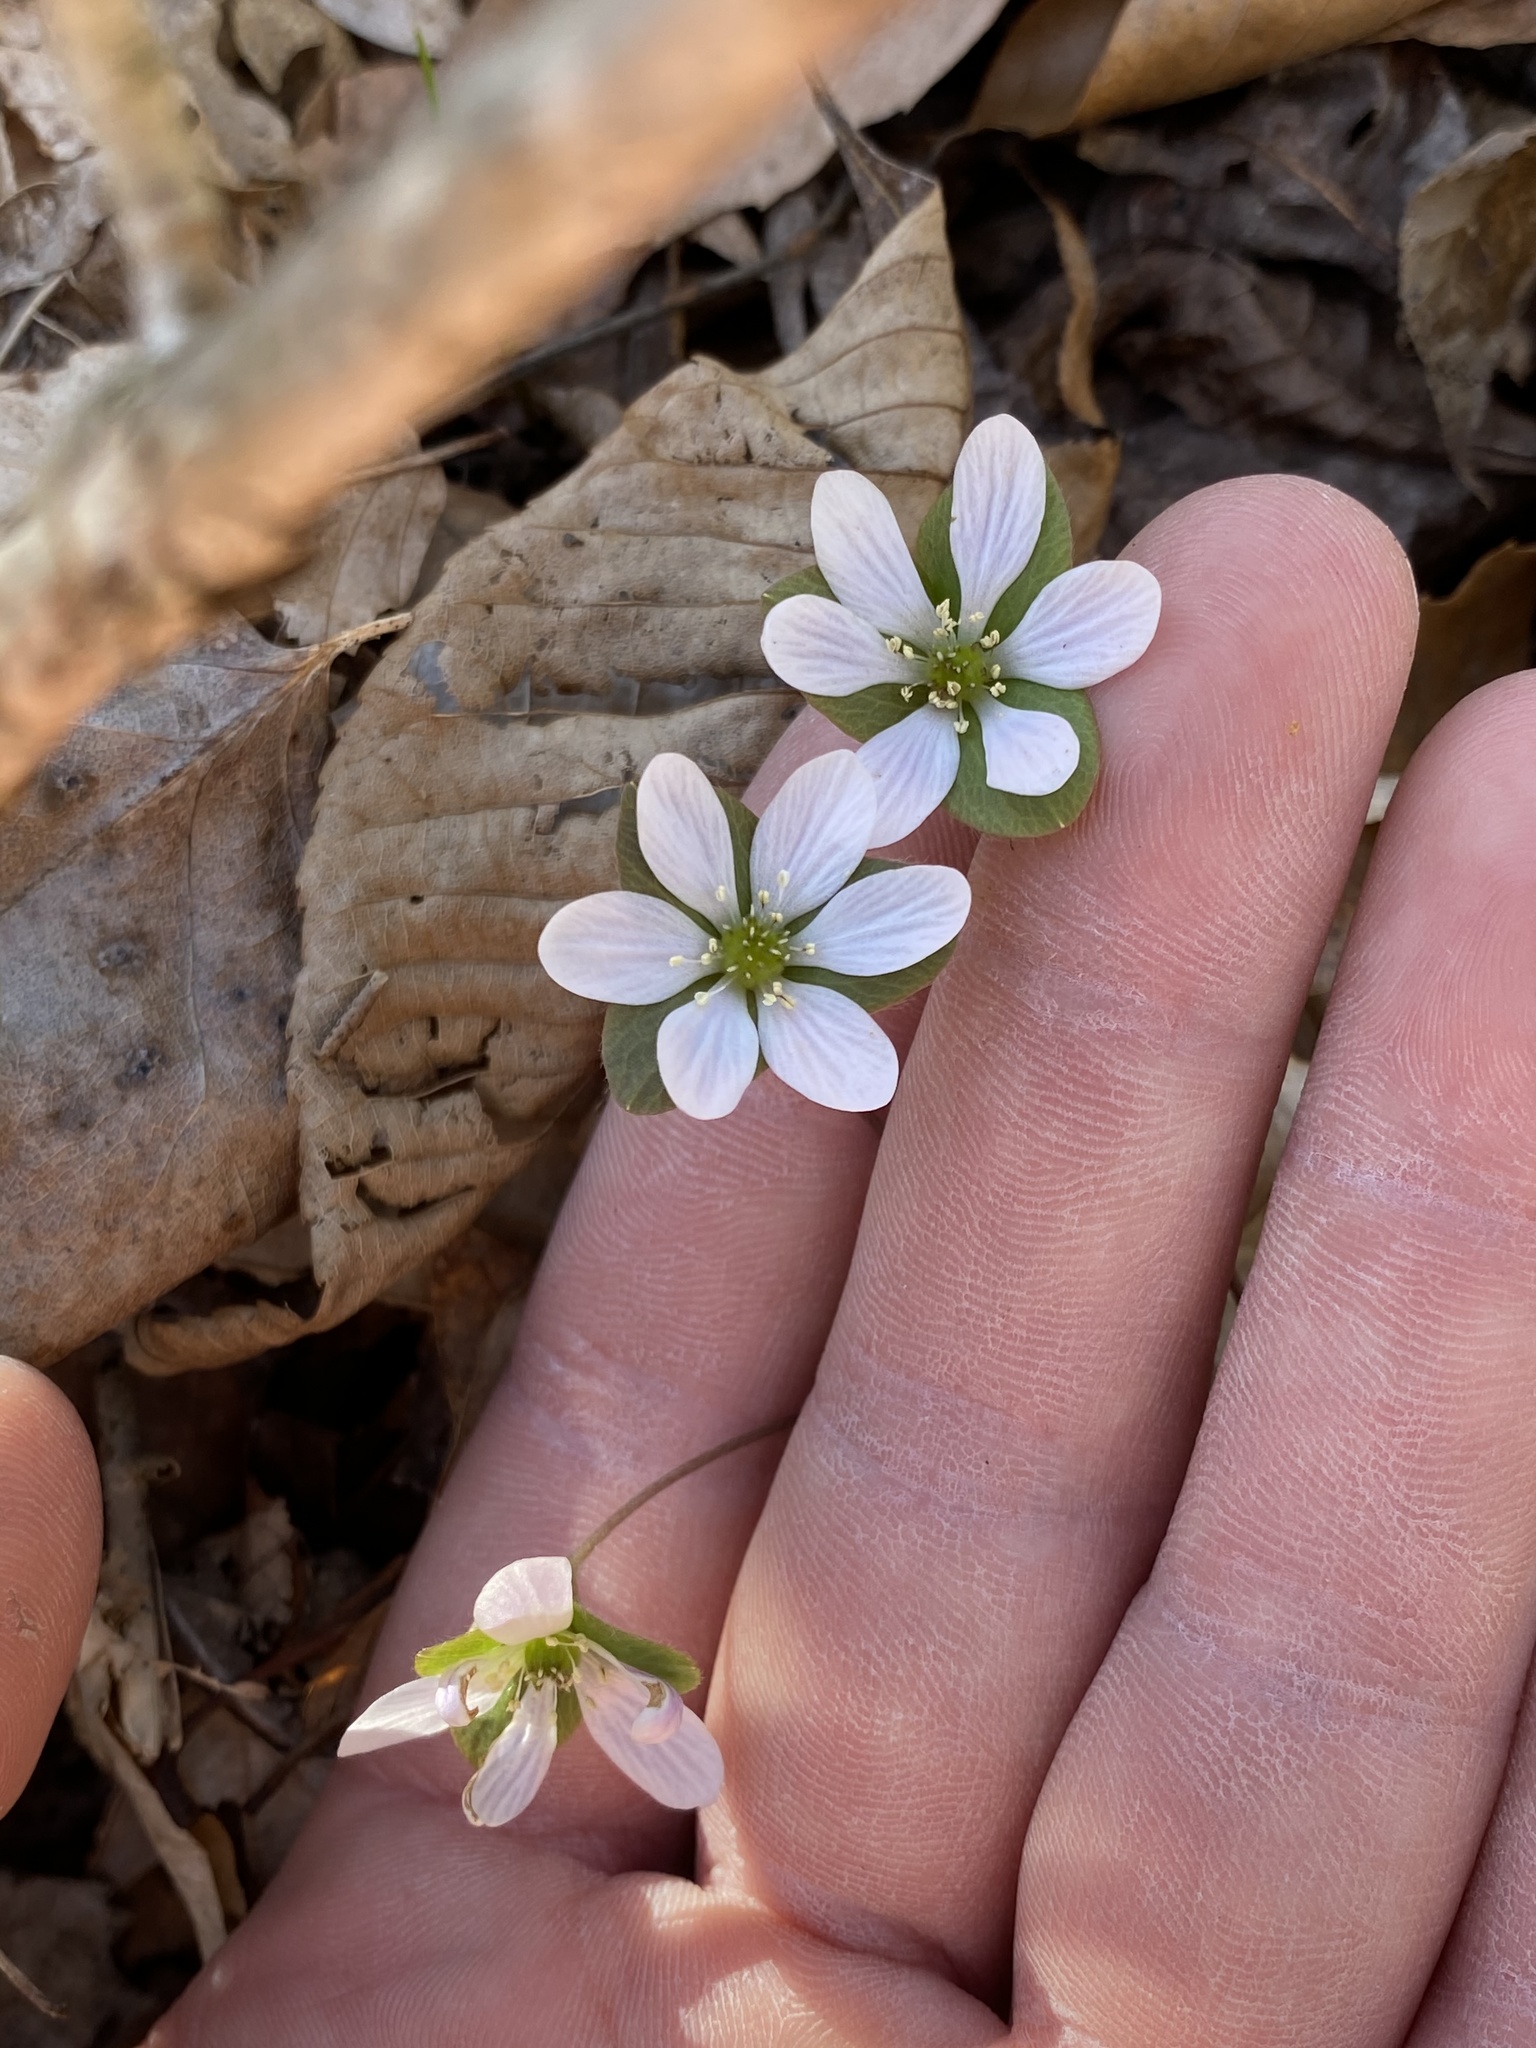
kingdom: Plantae
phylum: Tracheophyta
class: Magnoliopsida
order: Ranunculales
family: Ranunculaceae
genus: Hepatica
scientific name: Hepatica americana
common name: American hepatica
